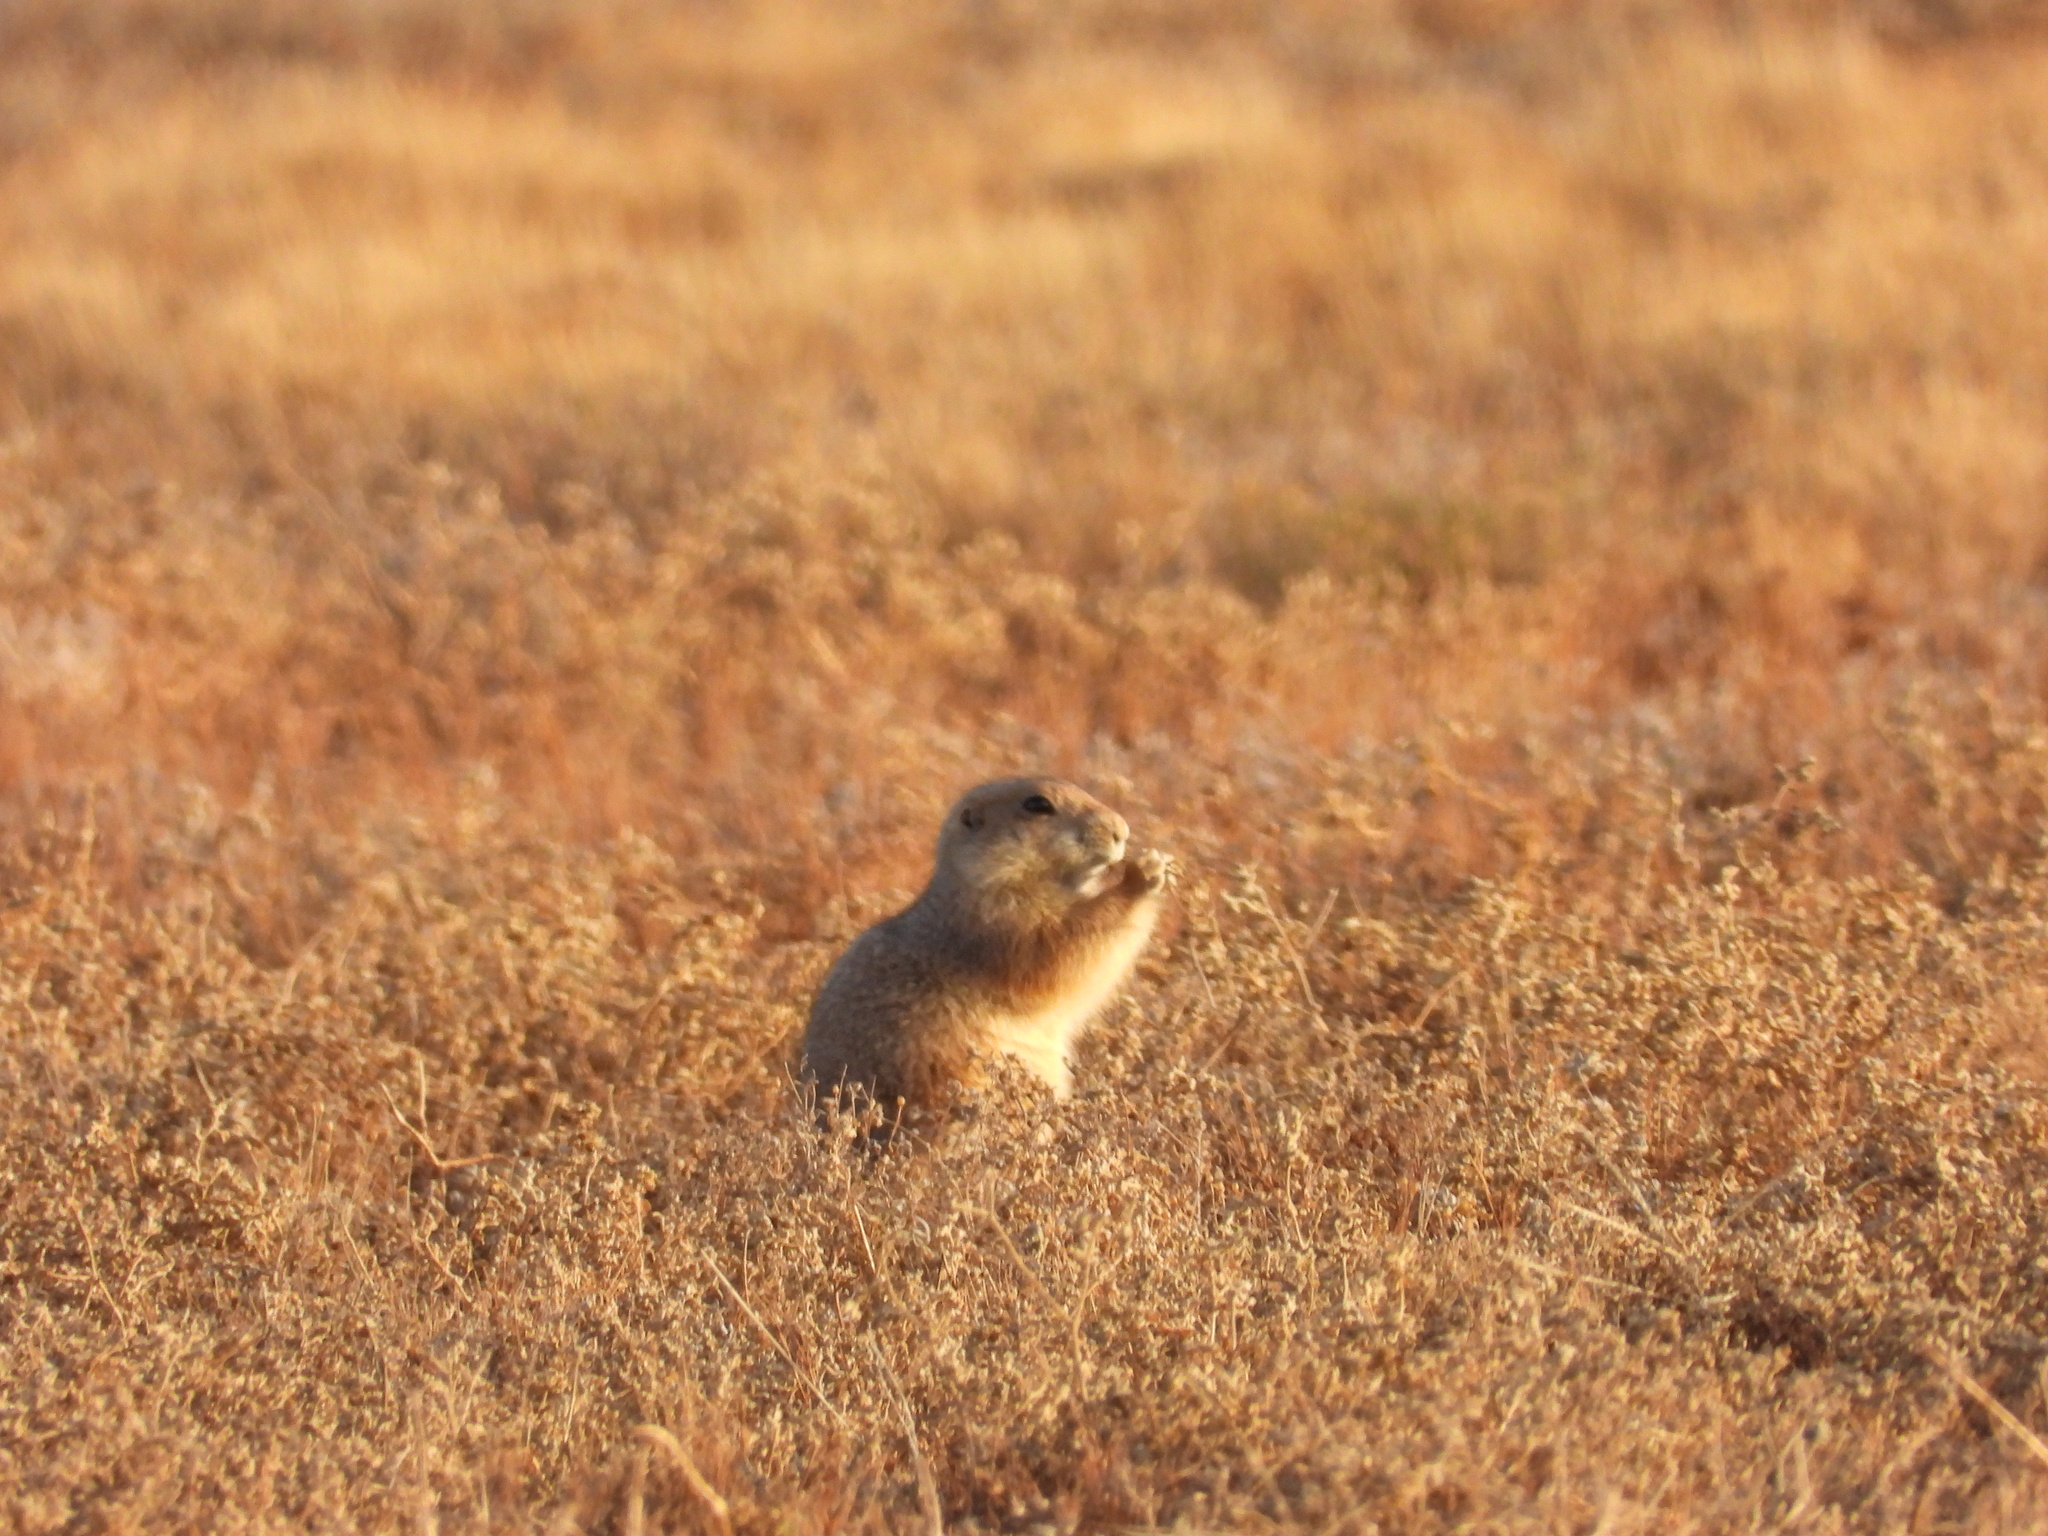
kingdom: Animalia
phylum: Chordata
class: Mammalia
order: Rodentia
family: Sciuridae
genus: Cynomys
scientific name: Cynomys ludovicianus
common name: Black-tailed prairie dog
